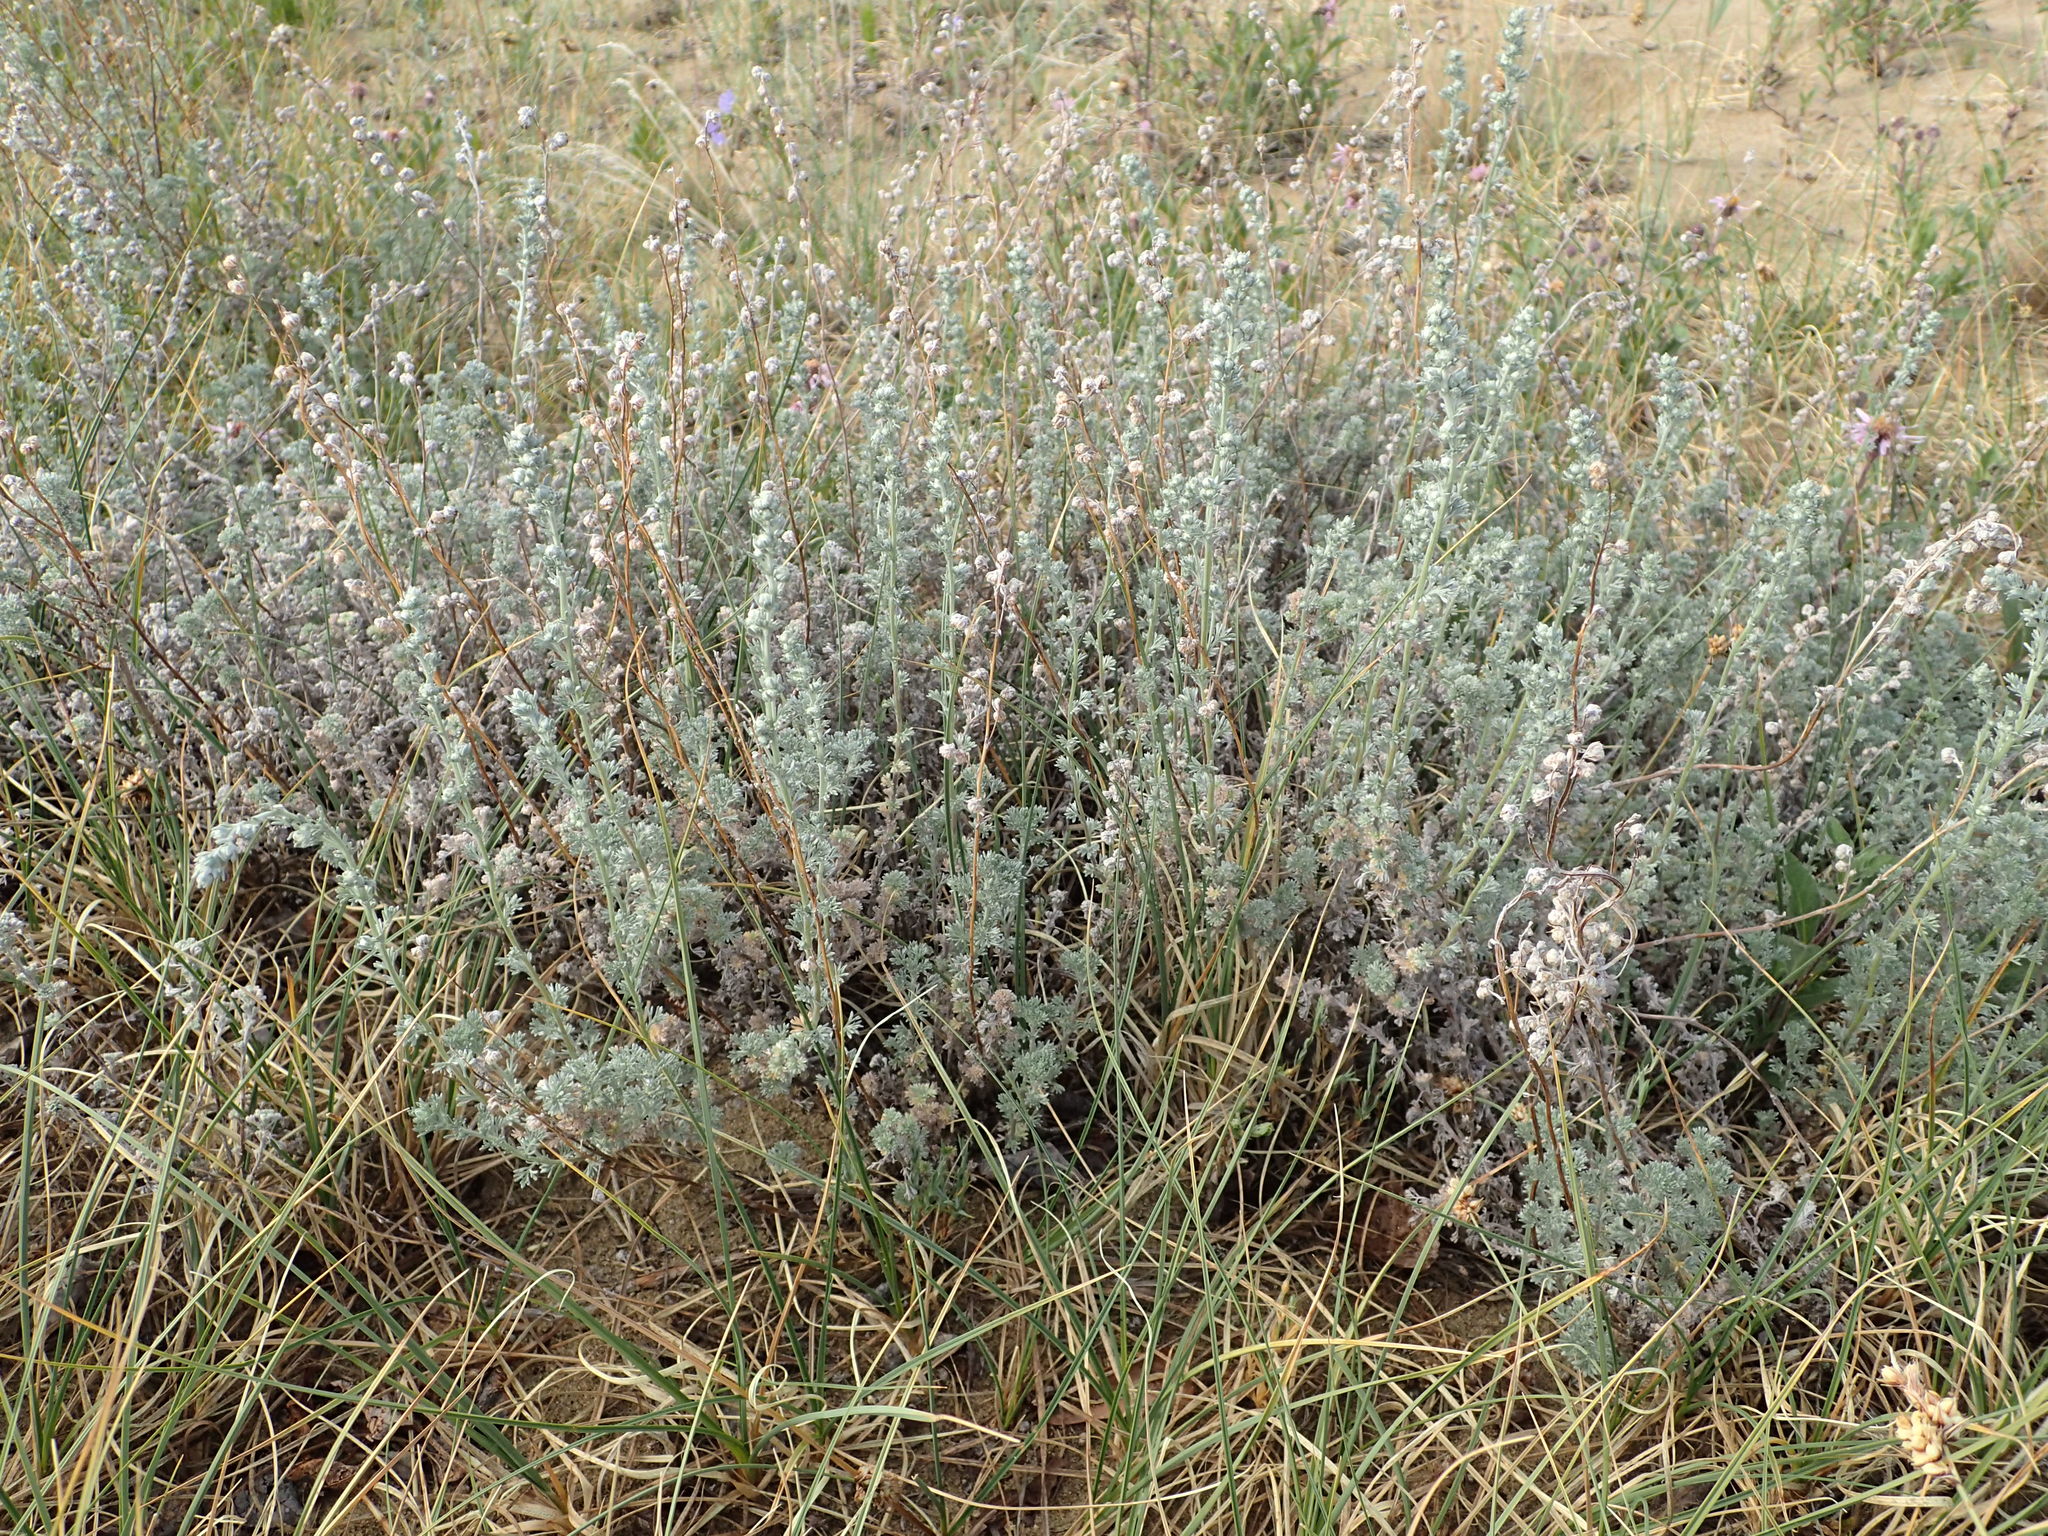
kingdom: Plantae
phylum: Tracheophyta
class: Magnoliopsida
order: Asterales
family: Asteraceae
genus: Artemisia
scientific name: Artemisia frigida
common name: Prairie sagewort
